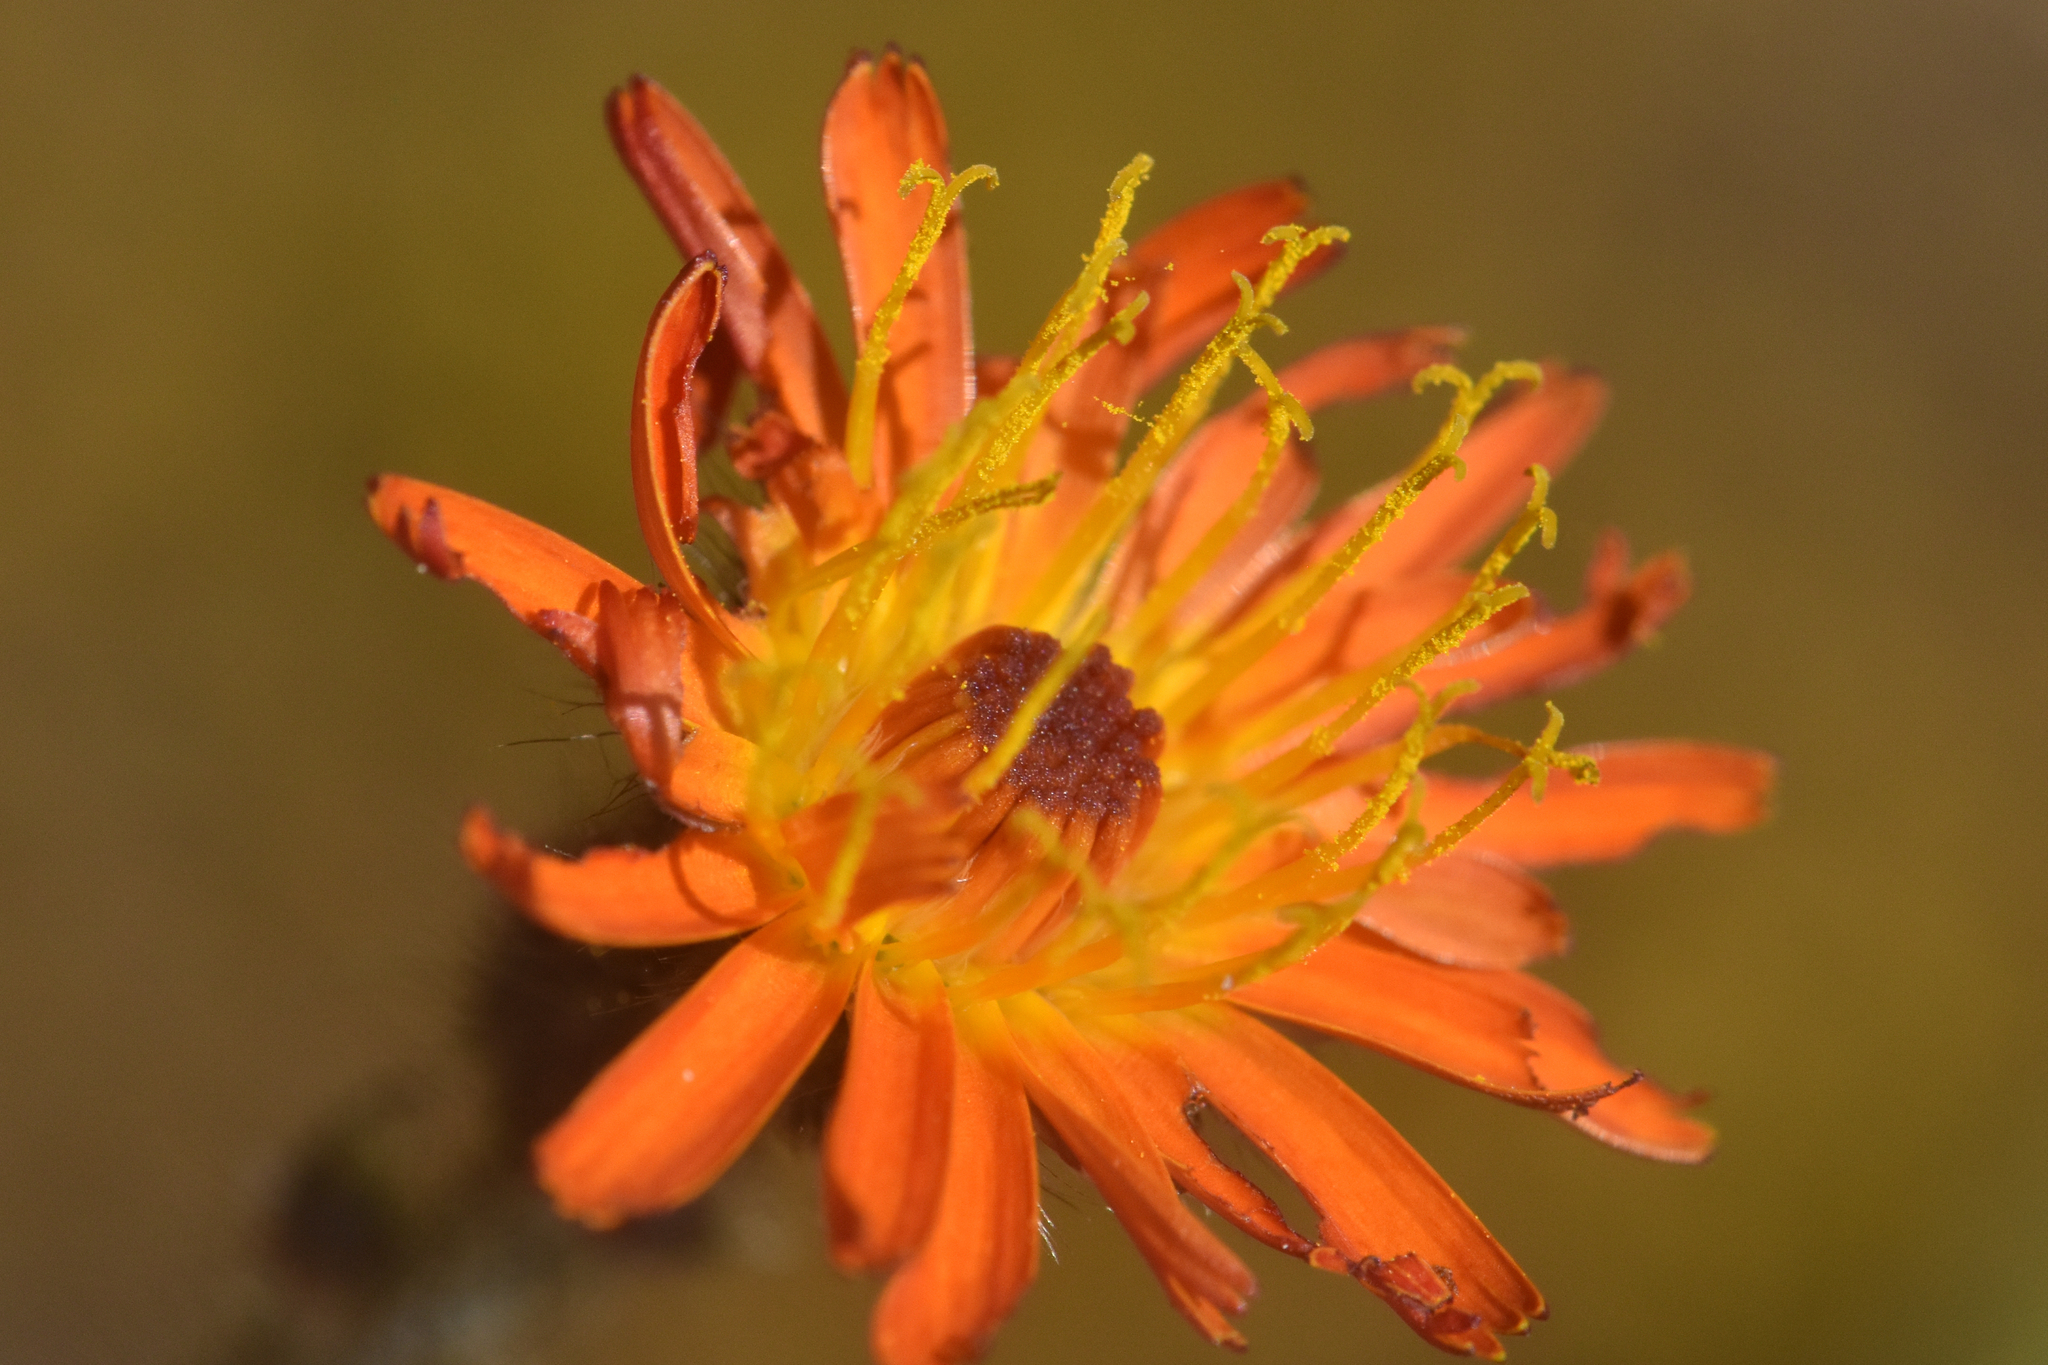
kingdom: Plantae
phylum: Tracheophyta
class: Magnoliopsida
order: Asterales
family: Asteraceae
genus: Pilosella
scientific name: Pilosella aurantiaca
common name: Fox-and-cubs
